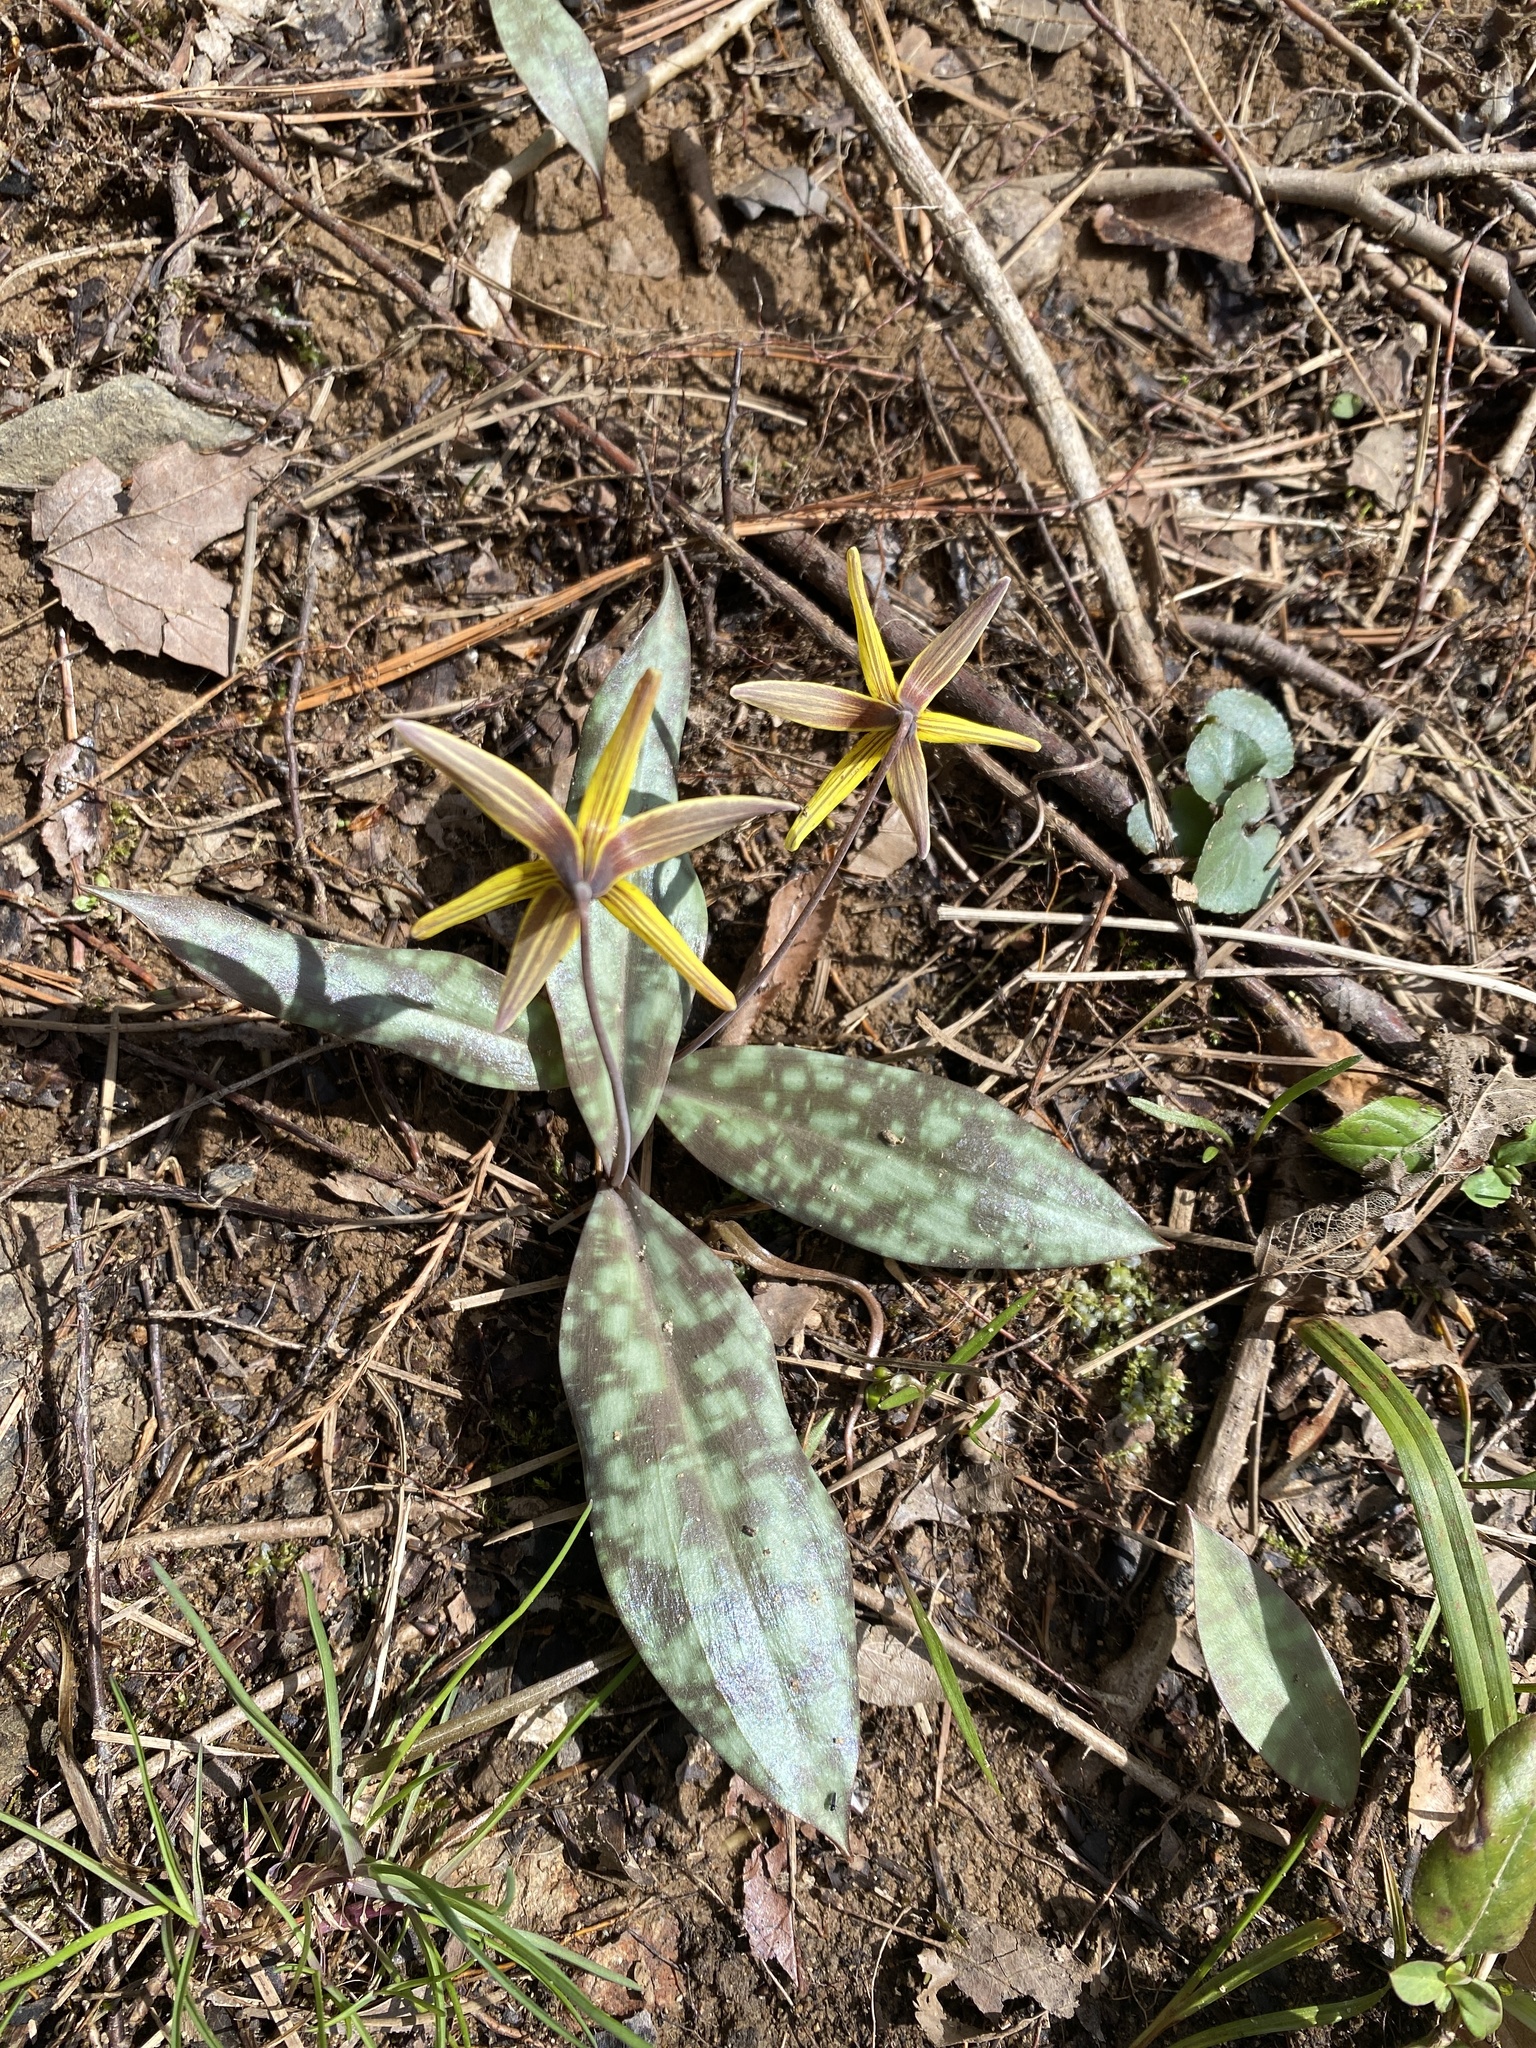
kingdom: Plantae
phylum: Tracheophyta
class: Liliopsida
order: Liliales
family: Liliaceae
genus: Erythronium
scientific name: Erythronium umbilicatum
